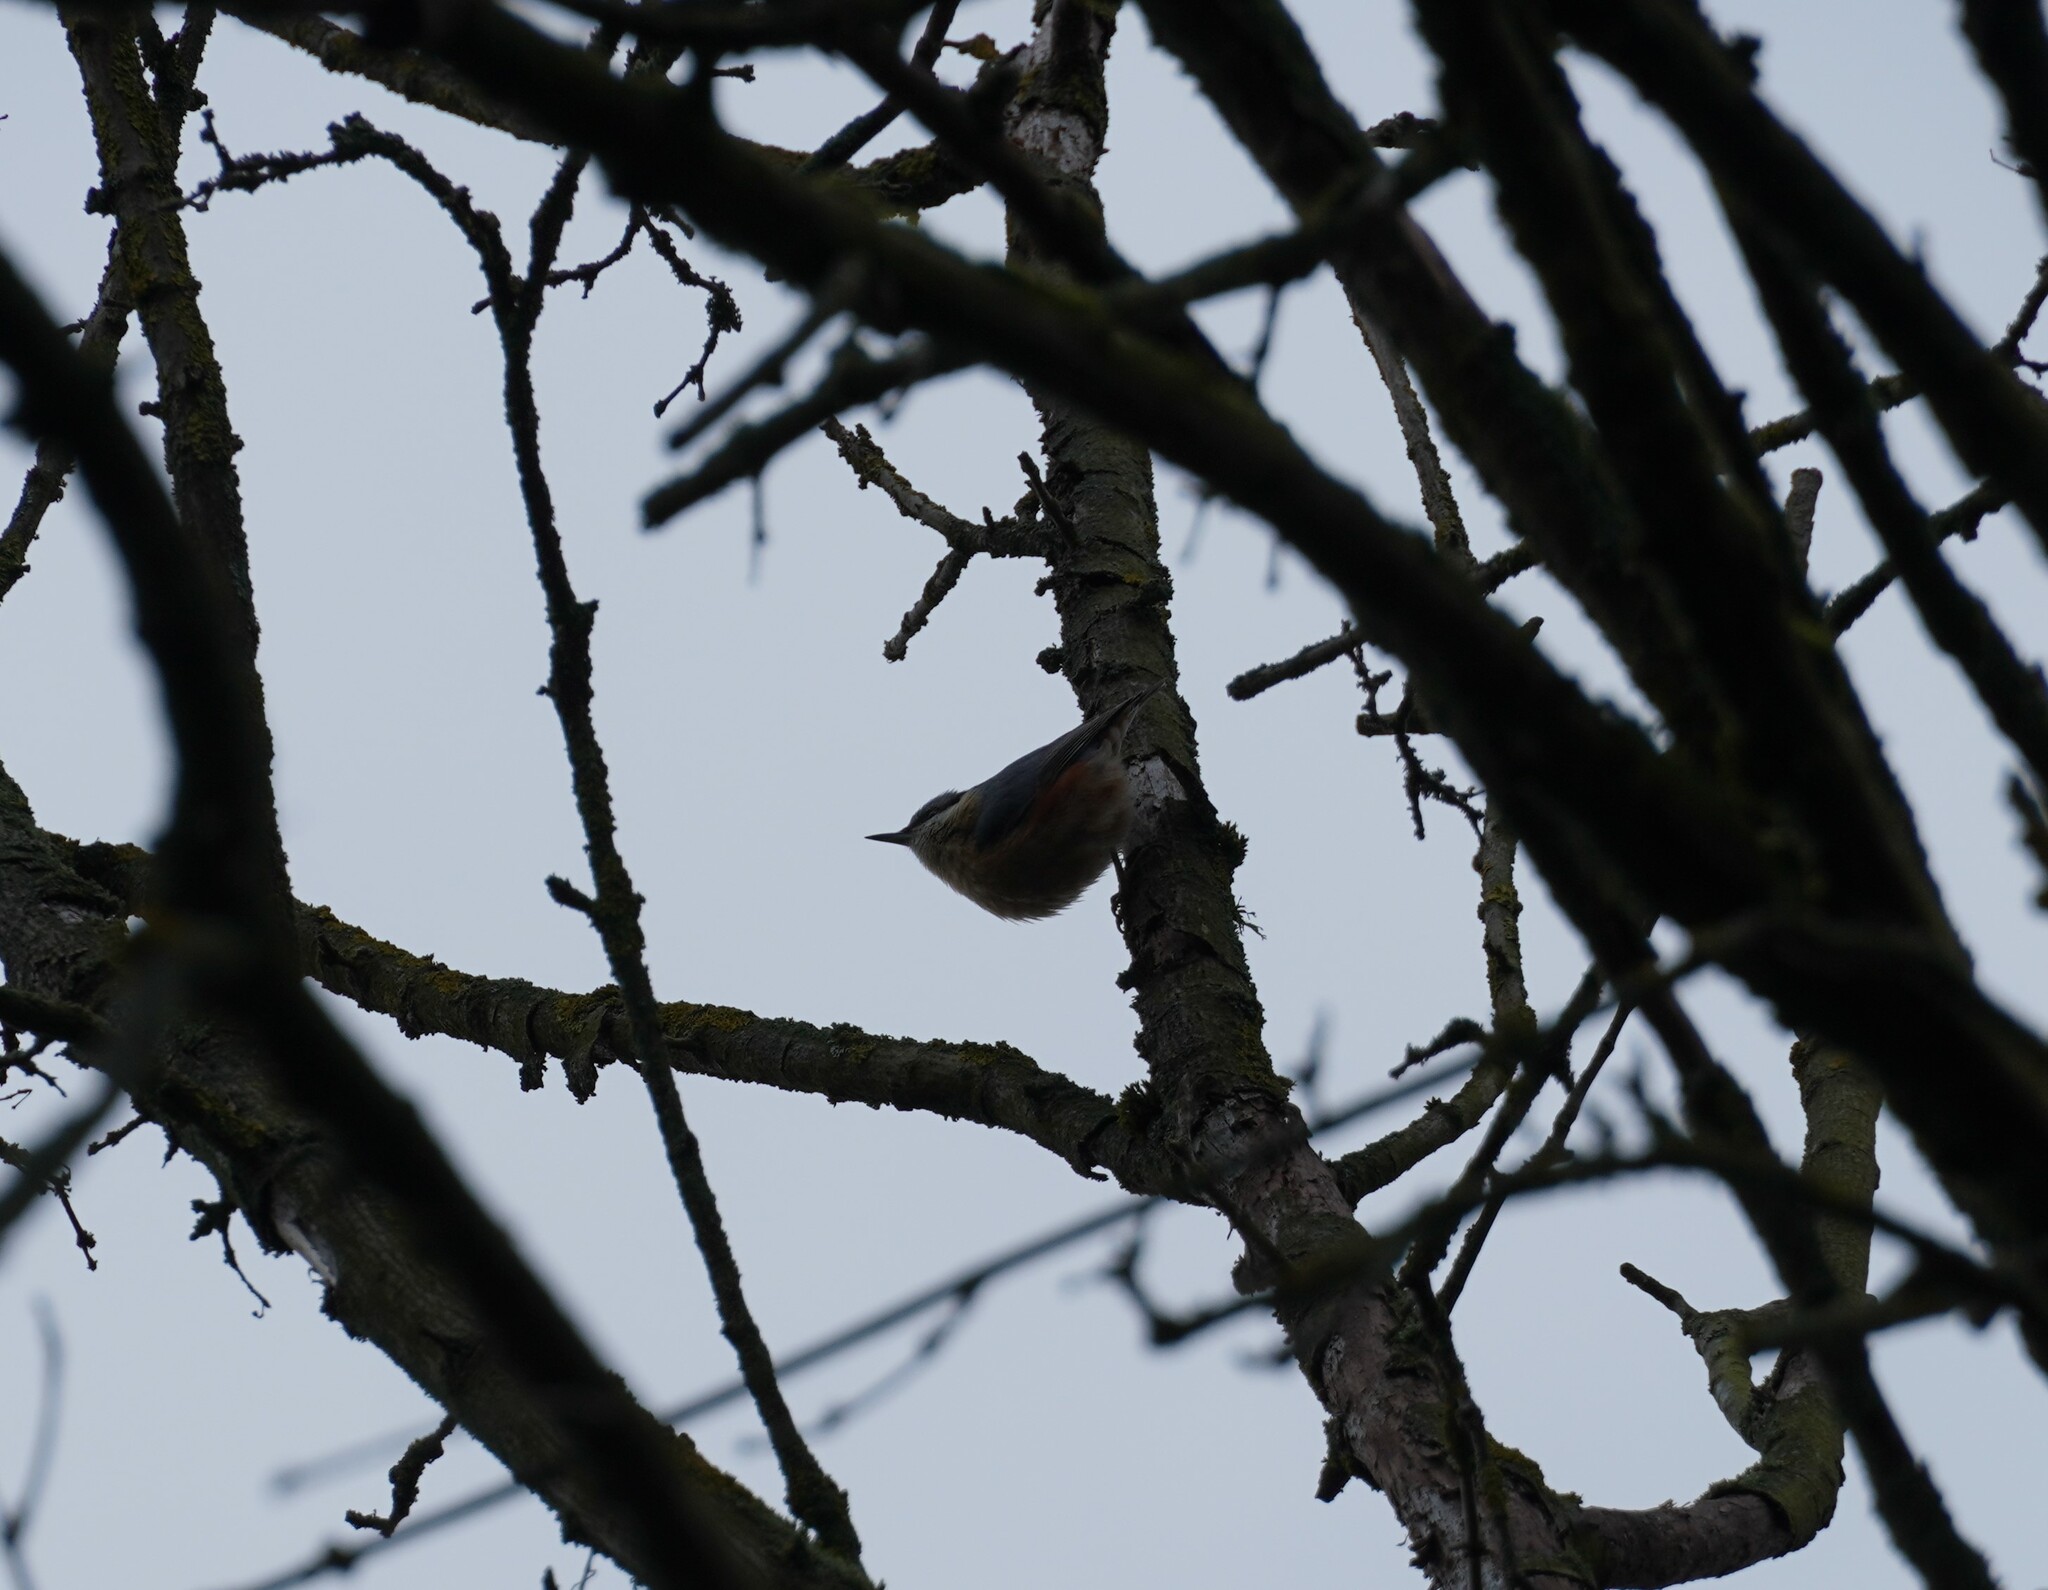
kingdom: Animalia
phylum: Chordata
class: Aves
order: Passeriformes
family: Sittidae
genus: Sitta
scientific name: Sitta europaea
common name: Eurasian nuthatch
